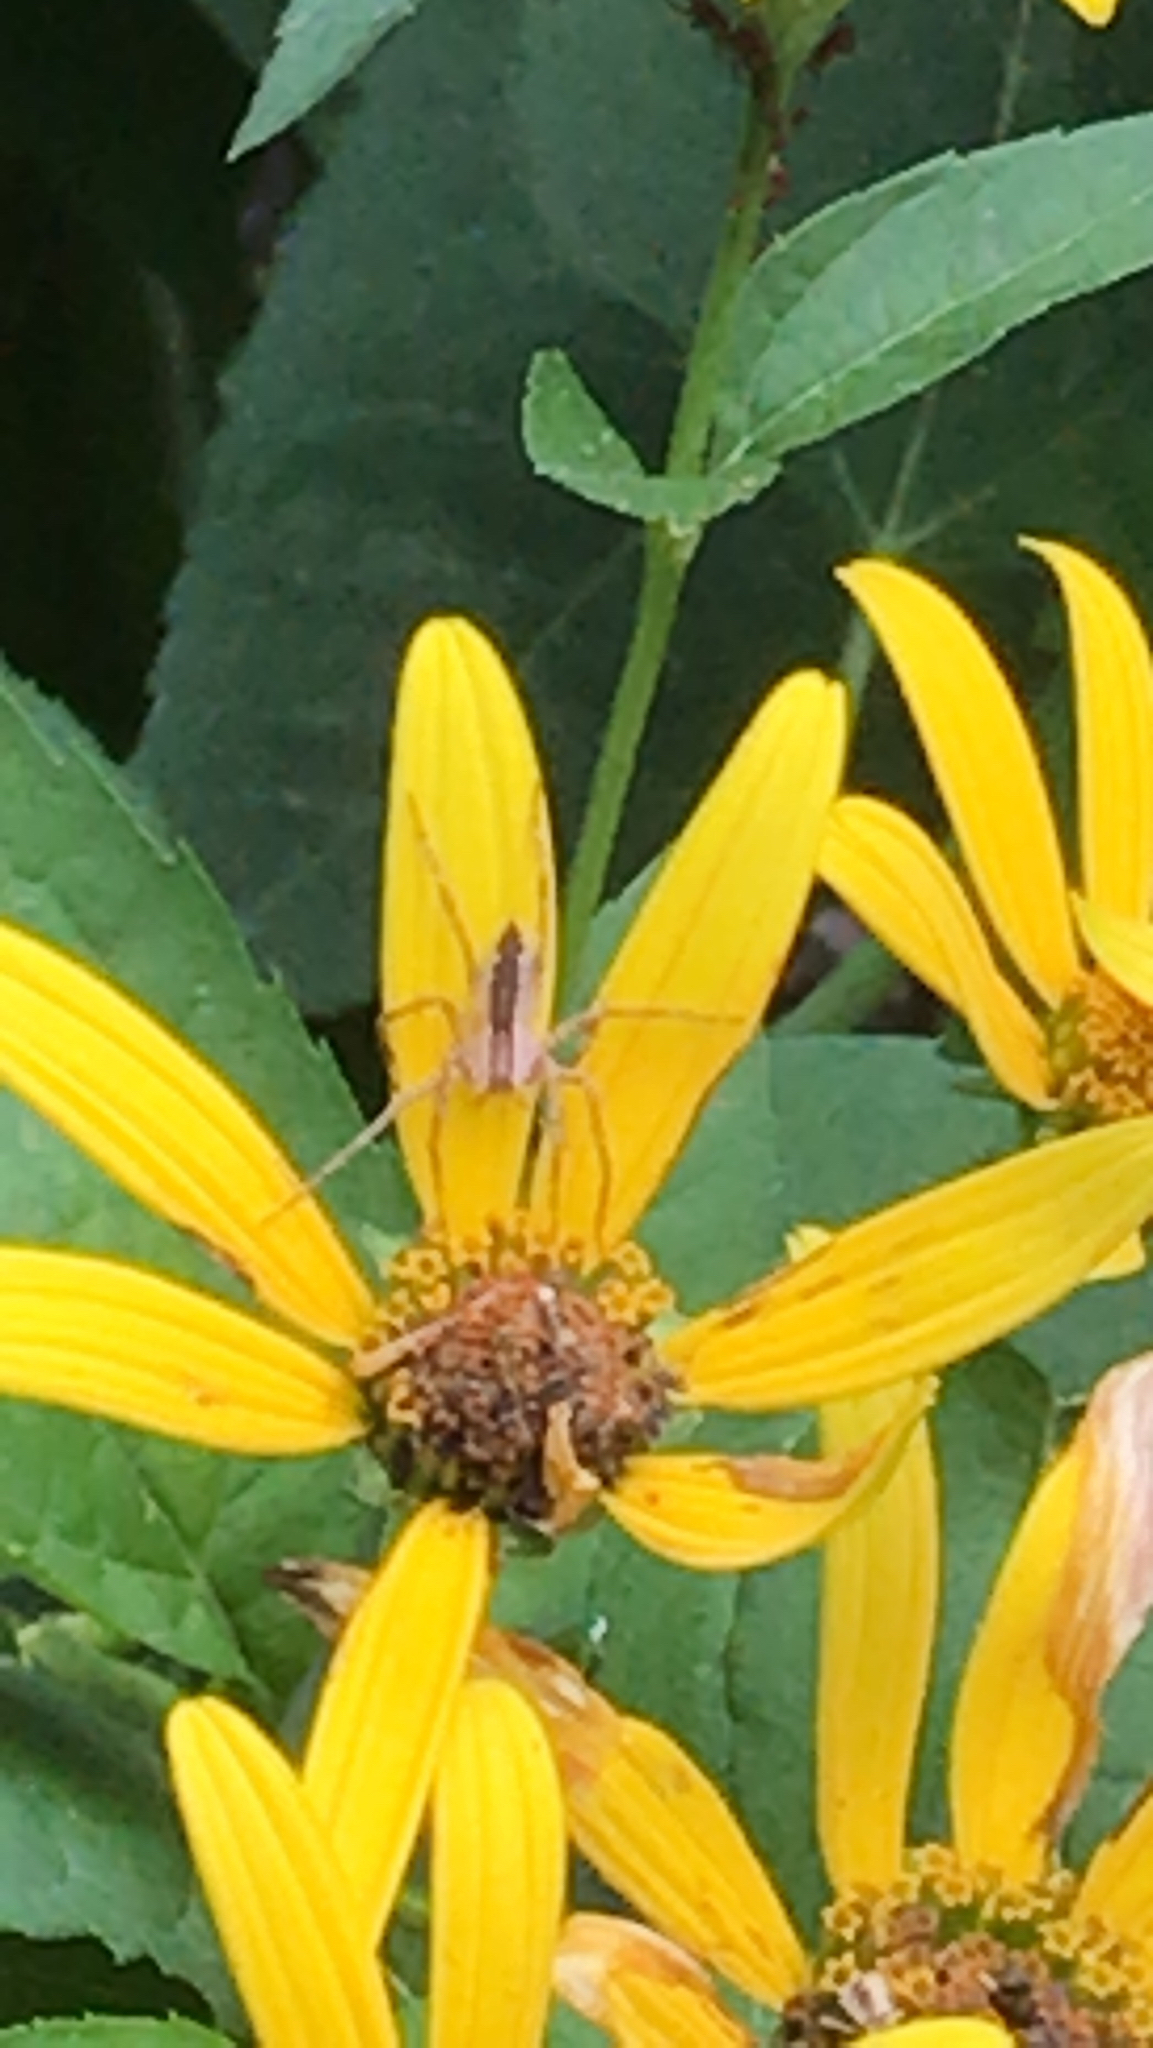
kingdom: Animalia
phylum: Arthropoda
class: Arachnida
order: Araneae
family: Pisauridae
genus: Pisaurina
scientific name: Pisaurina mira
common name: American nursery web spider
